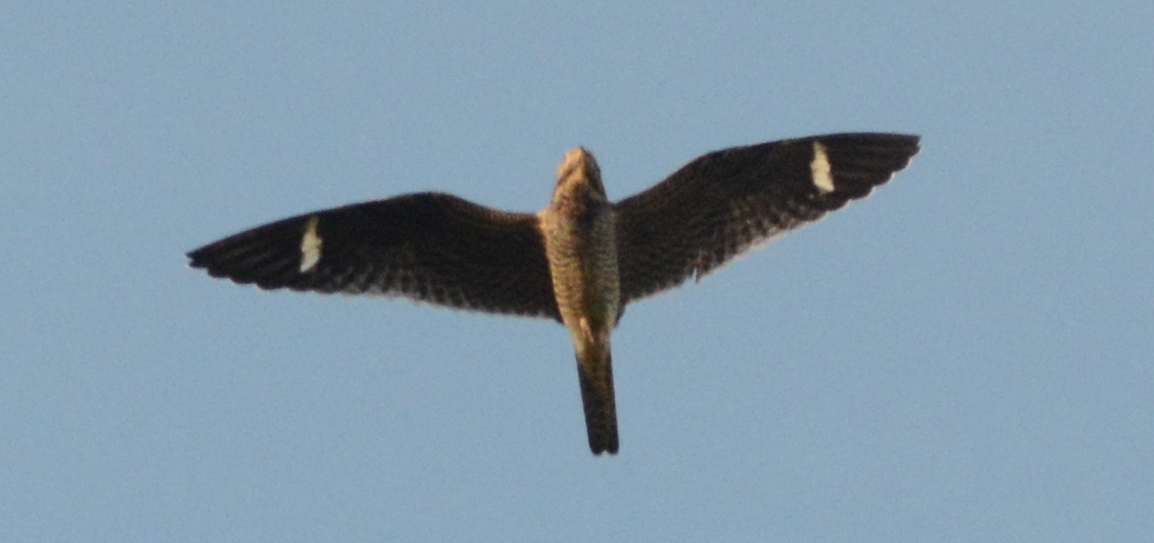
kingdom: Animalia
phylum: Chordata
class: Aves
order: Caprimulgiformes
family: Caprimulgidae
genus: Chordeiles
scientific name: Chordeiles minor
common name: Common nighthawk
